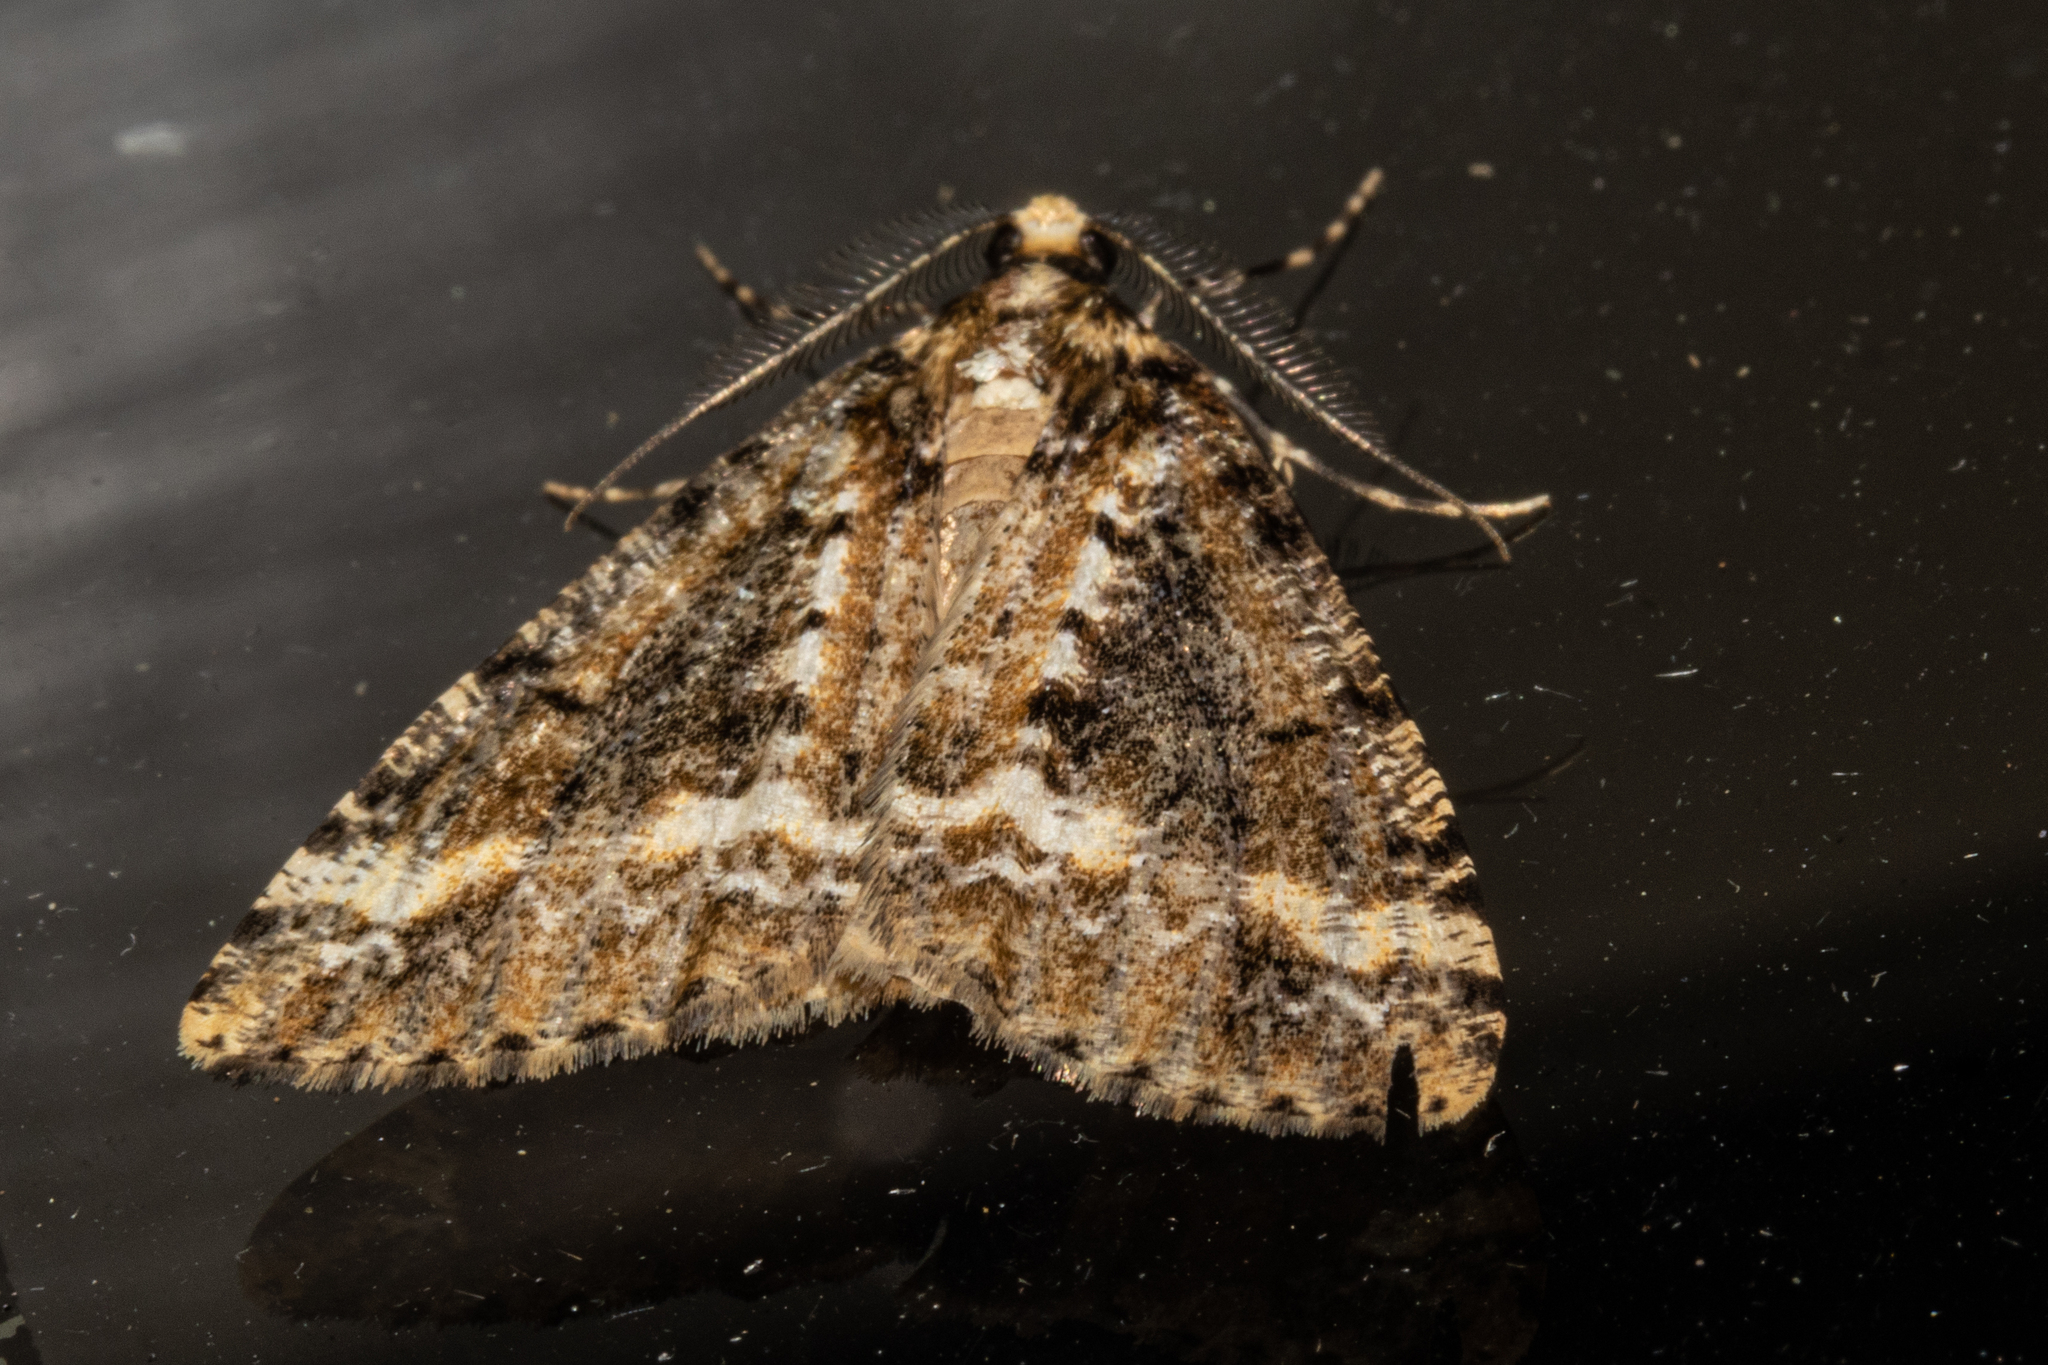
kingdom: Animalia
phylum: Arthropoda
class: Insecta
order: Lepidoptera
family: Geometridae
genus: Pseudocoremia
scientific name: Pseudocoremia leucelaea
